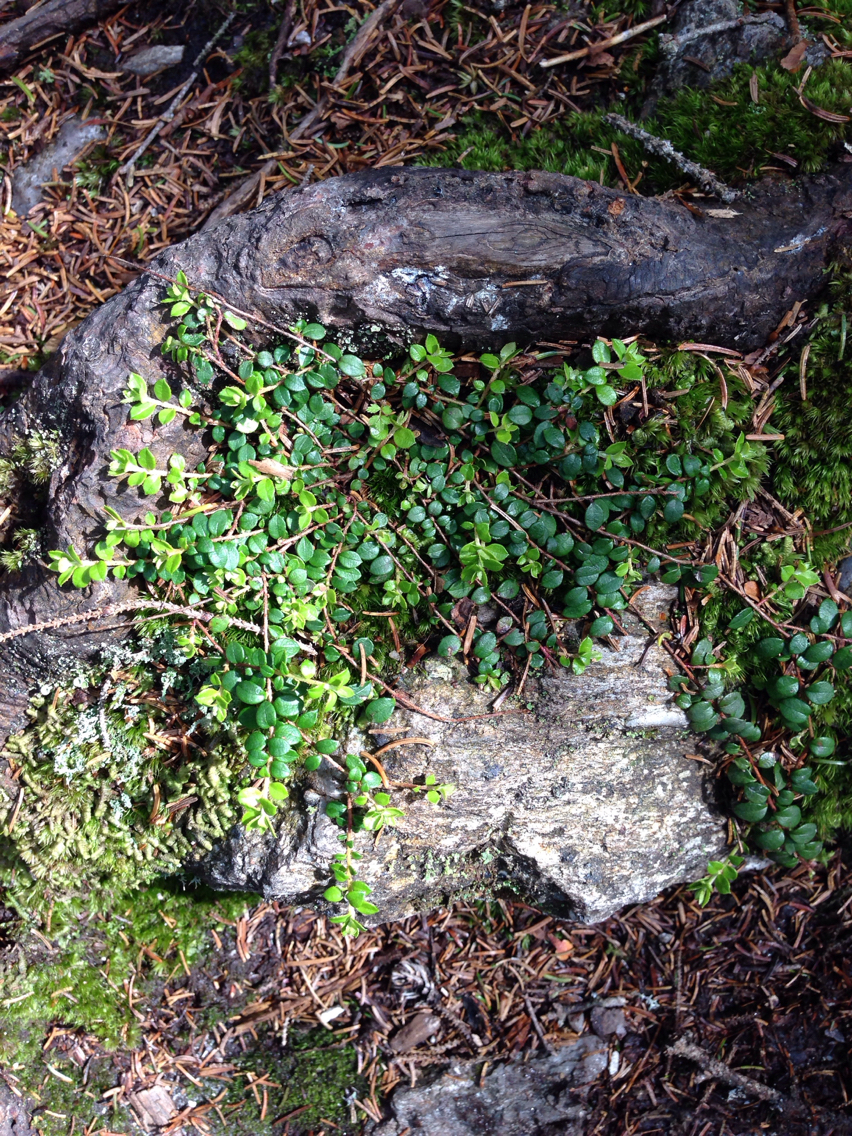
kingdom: Plantae
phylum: Tracheophyta
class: Magnoliopsida
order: Ericales
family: Ericaceae
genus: Gaultheria
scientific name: Gaultheria hispidula
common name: Cancer wintergreen
